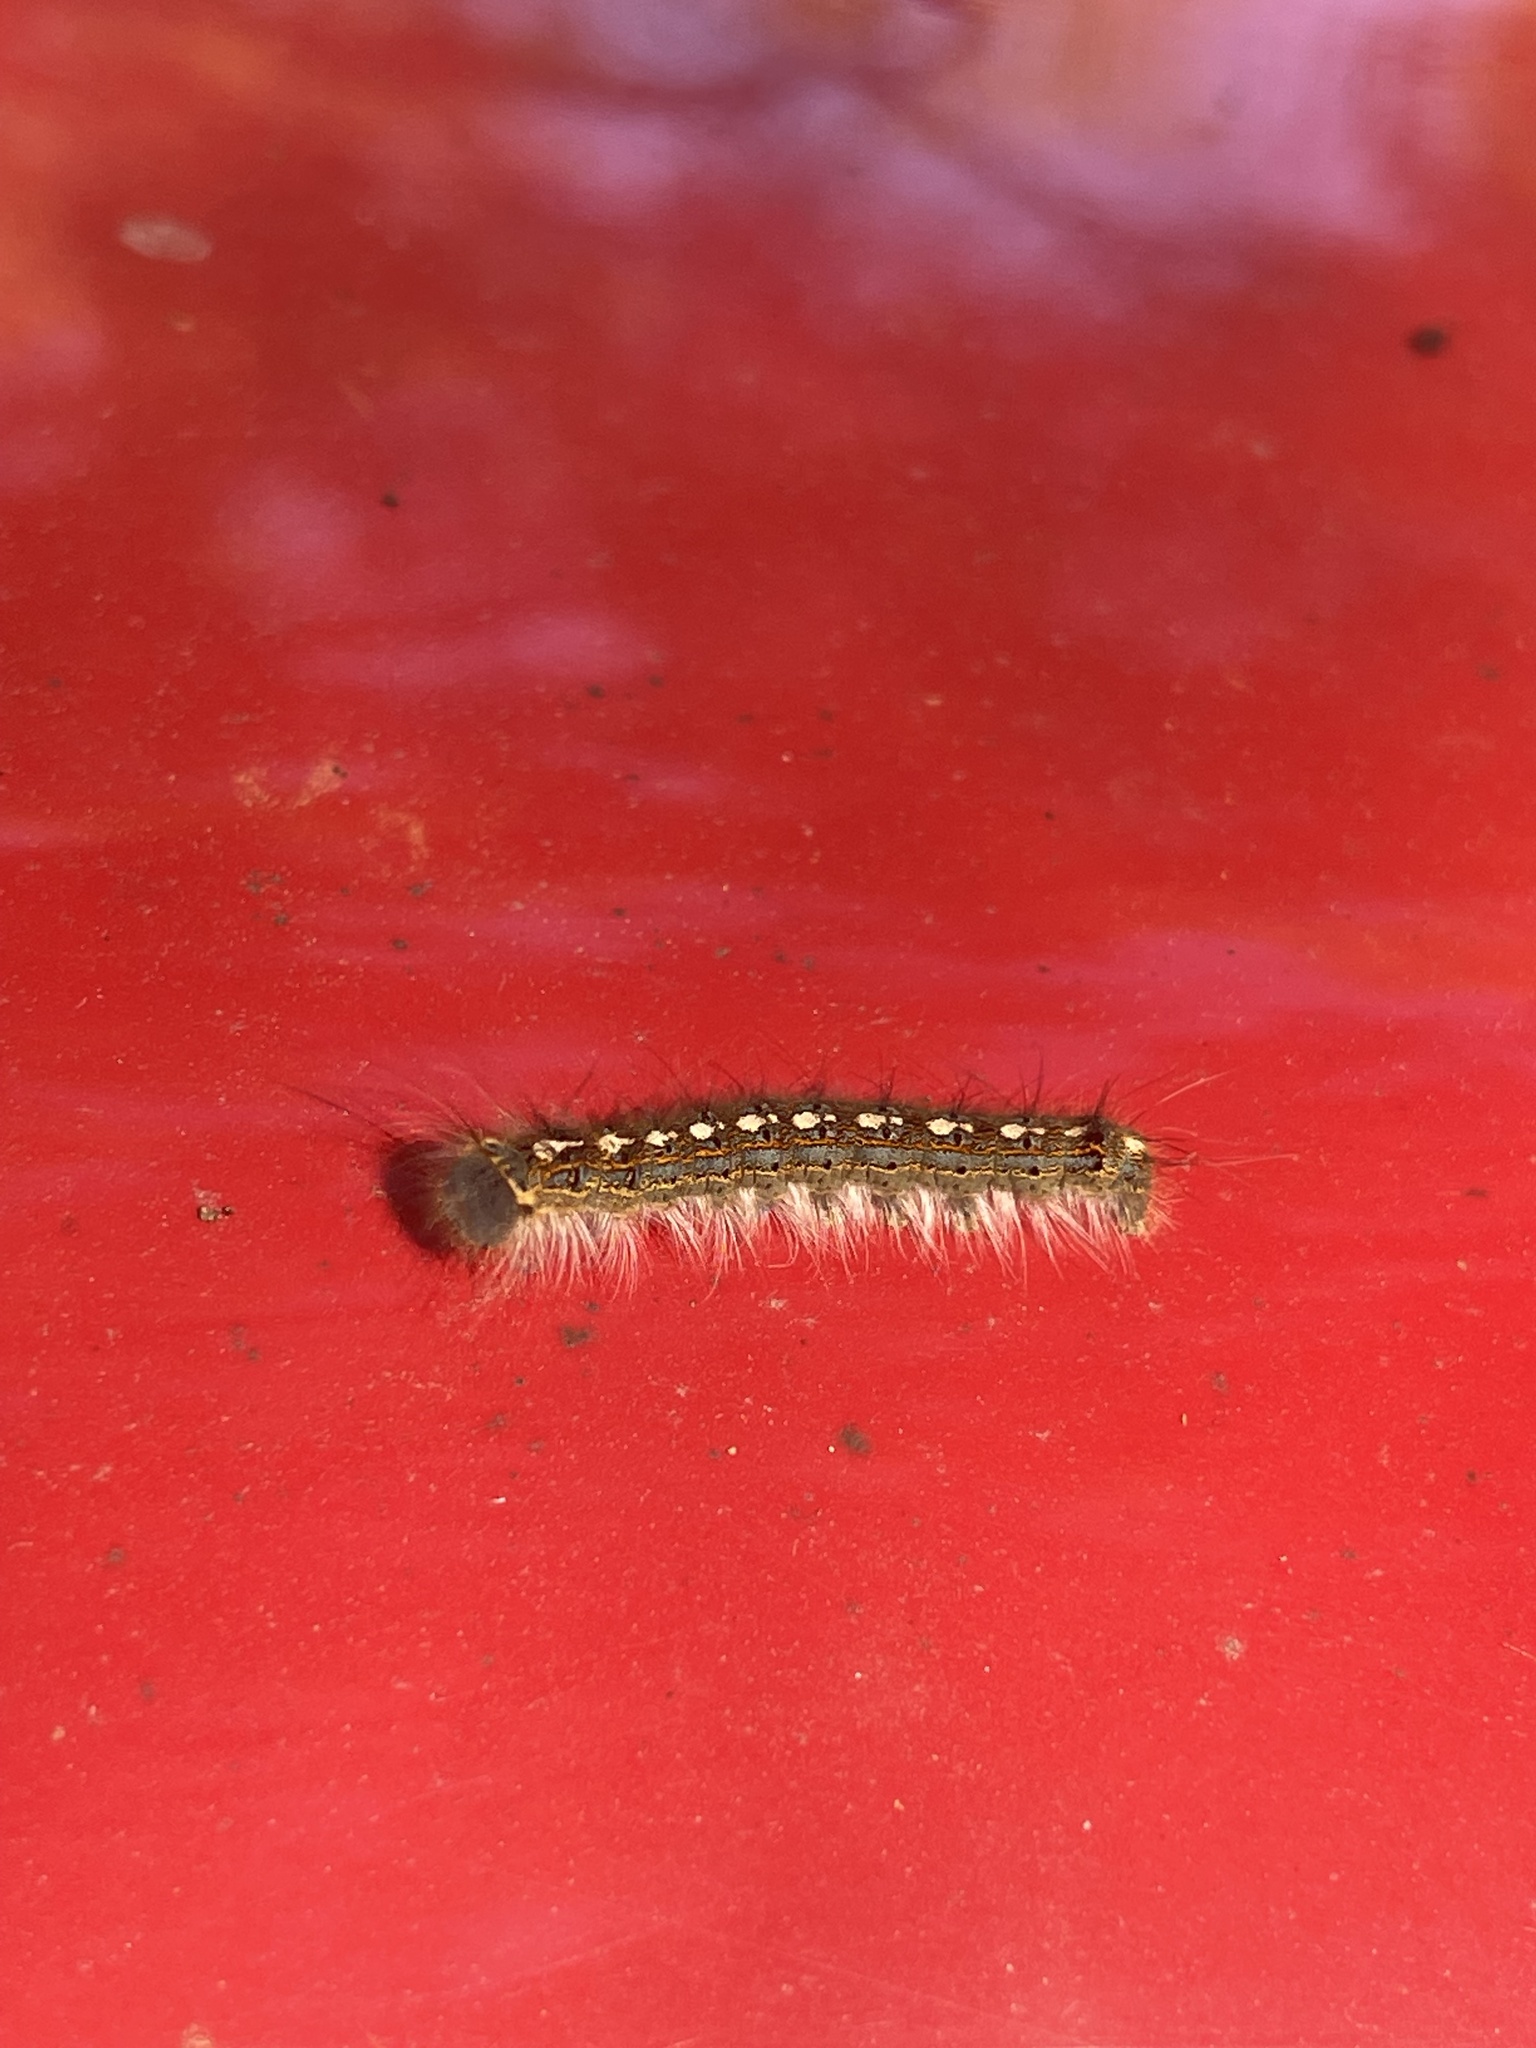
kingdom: Animalia
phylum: Arthropoda
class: Insecta
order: Lepidoptera
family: Lasiocampidae
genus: Malacosoma
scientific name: Malacosoma disstria
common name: Forest tent caterpillar
